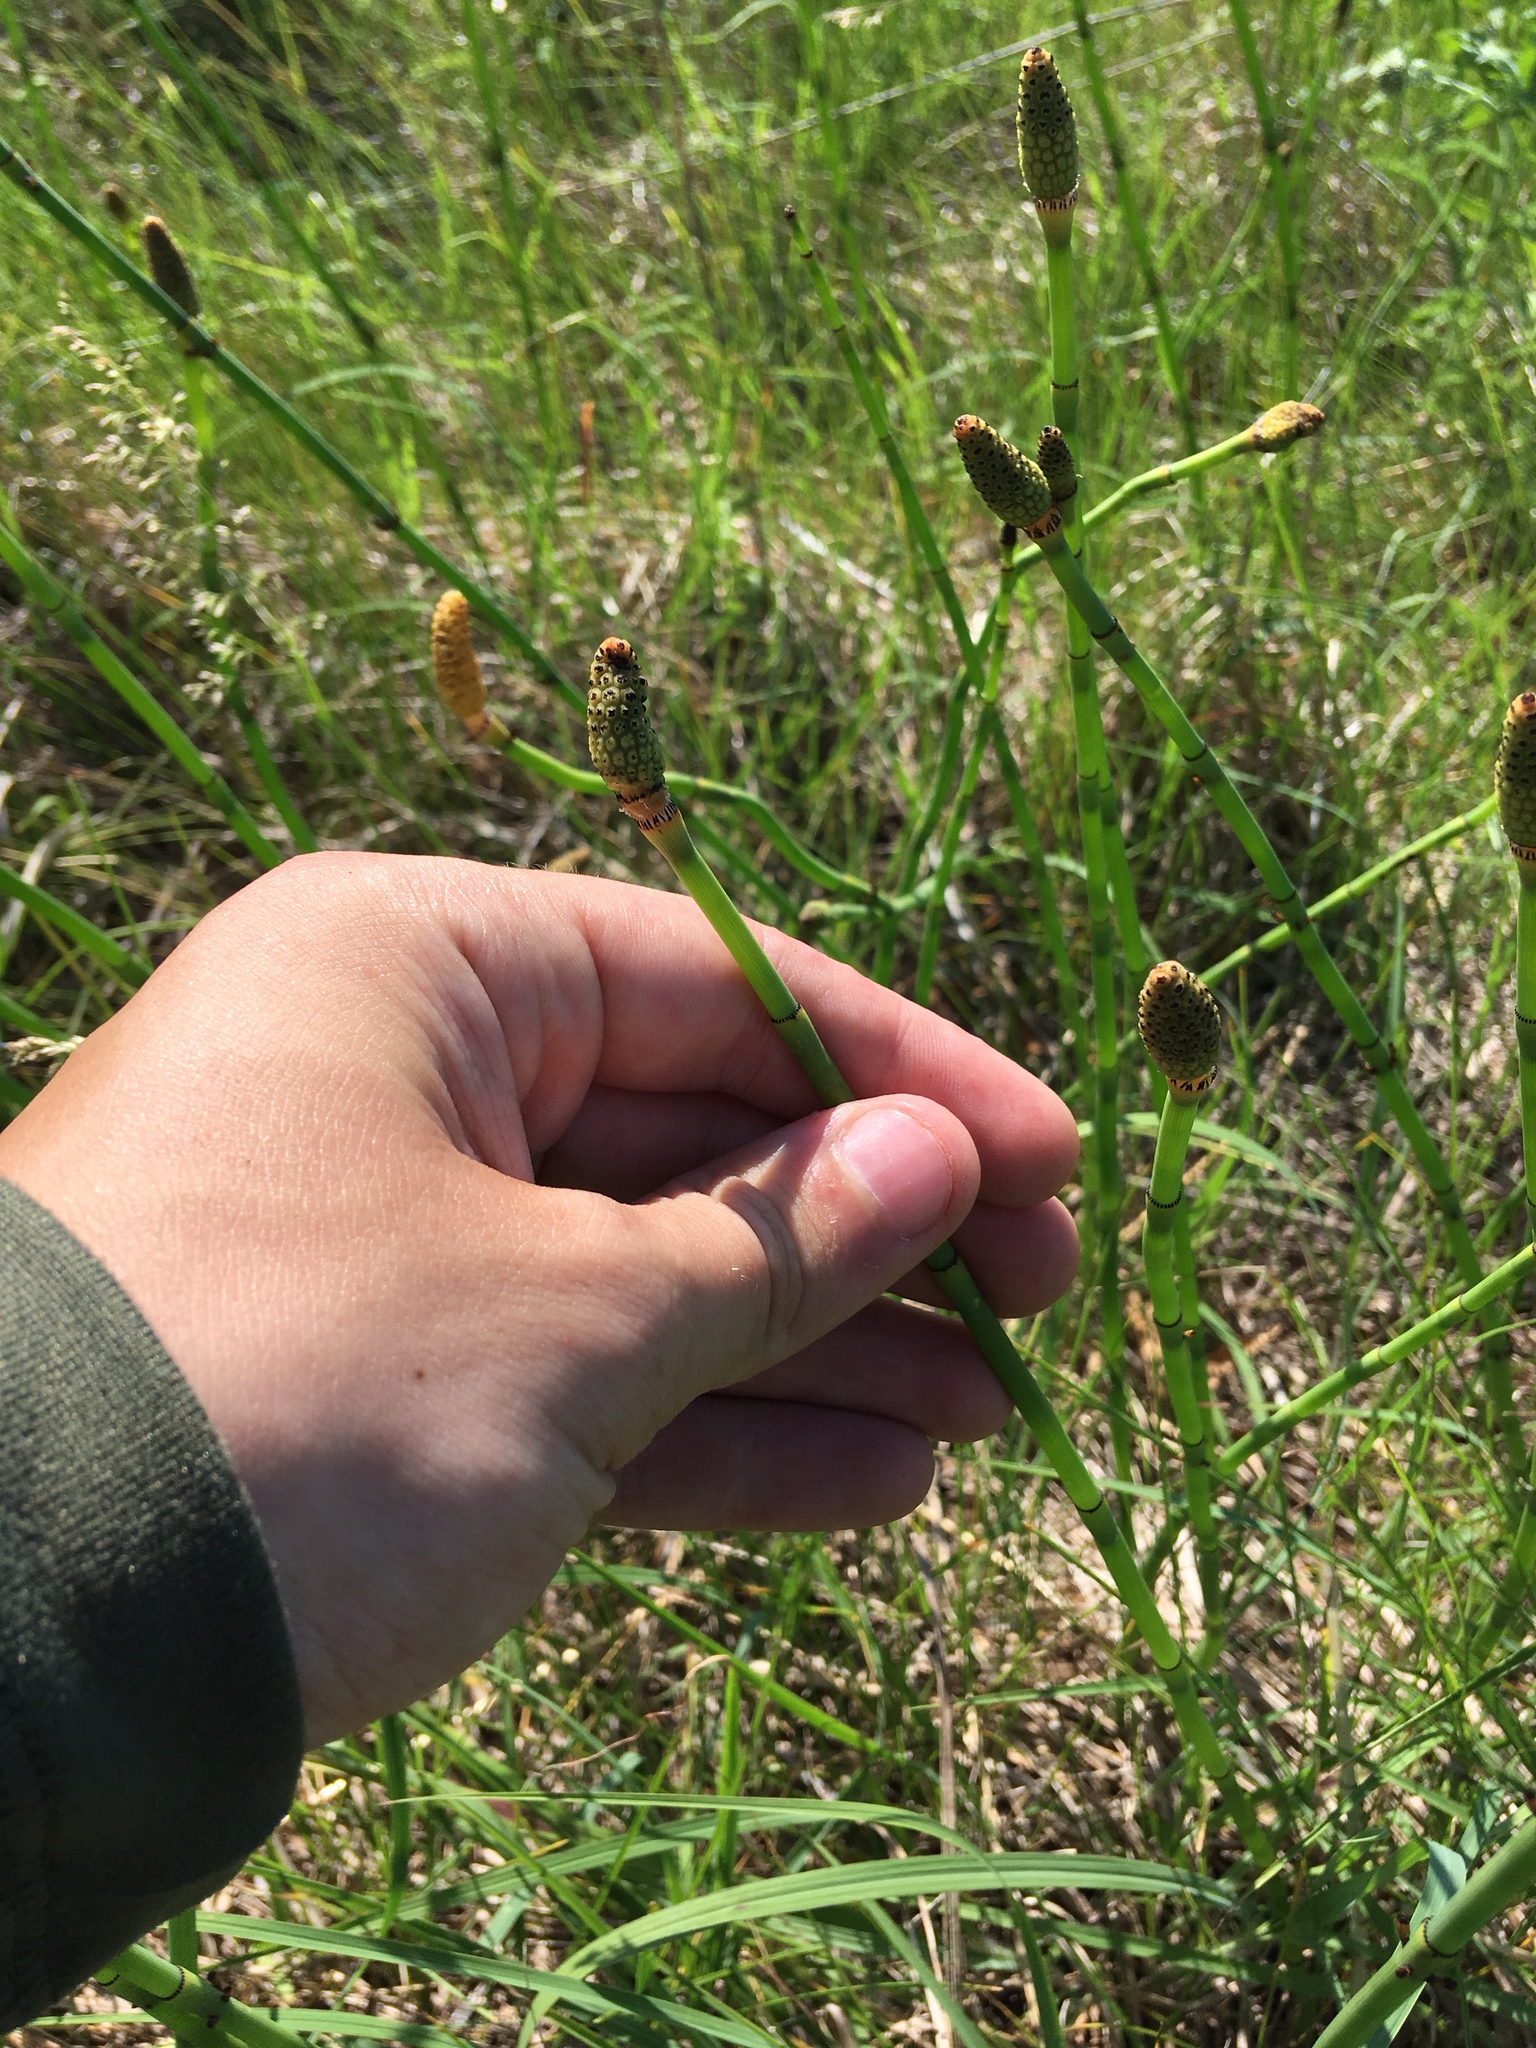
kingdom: Plantae
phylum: Tracheophyta
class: Polypodiopsida
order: Equisetales
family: Equisetaceae
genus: Equisetum
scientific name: Equisetum laevigatum
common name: Smooth scouring-rush
